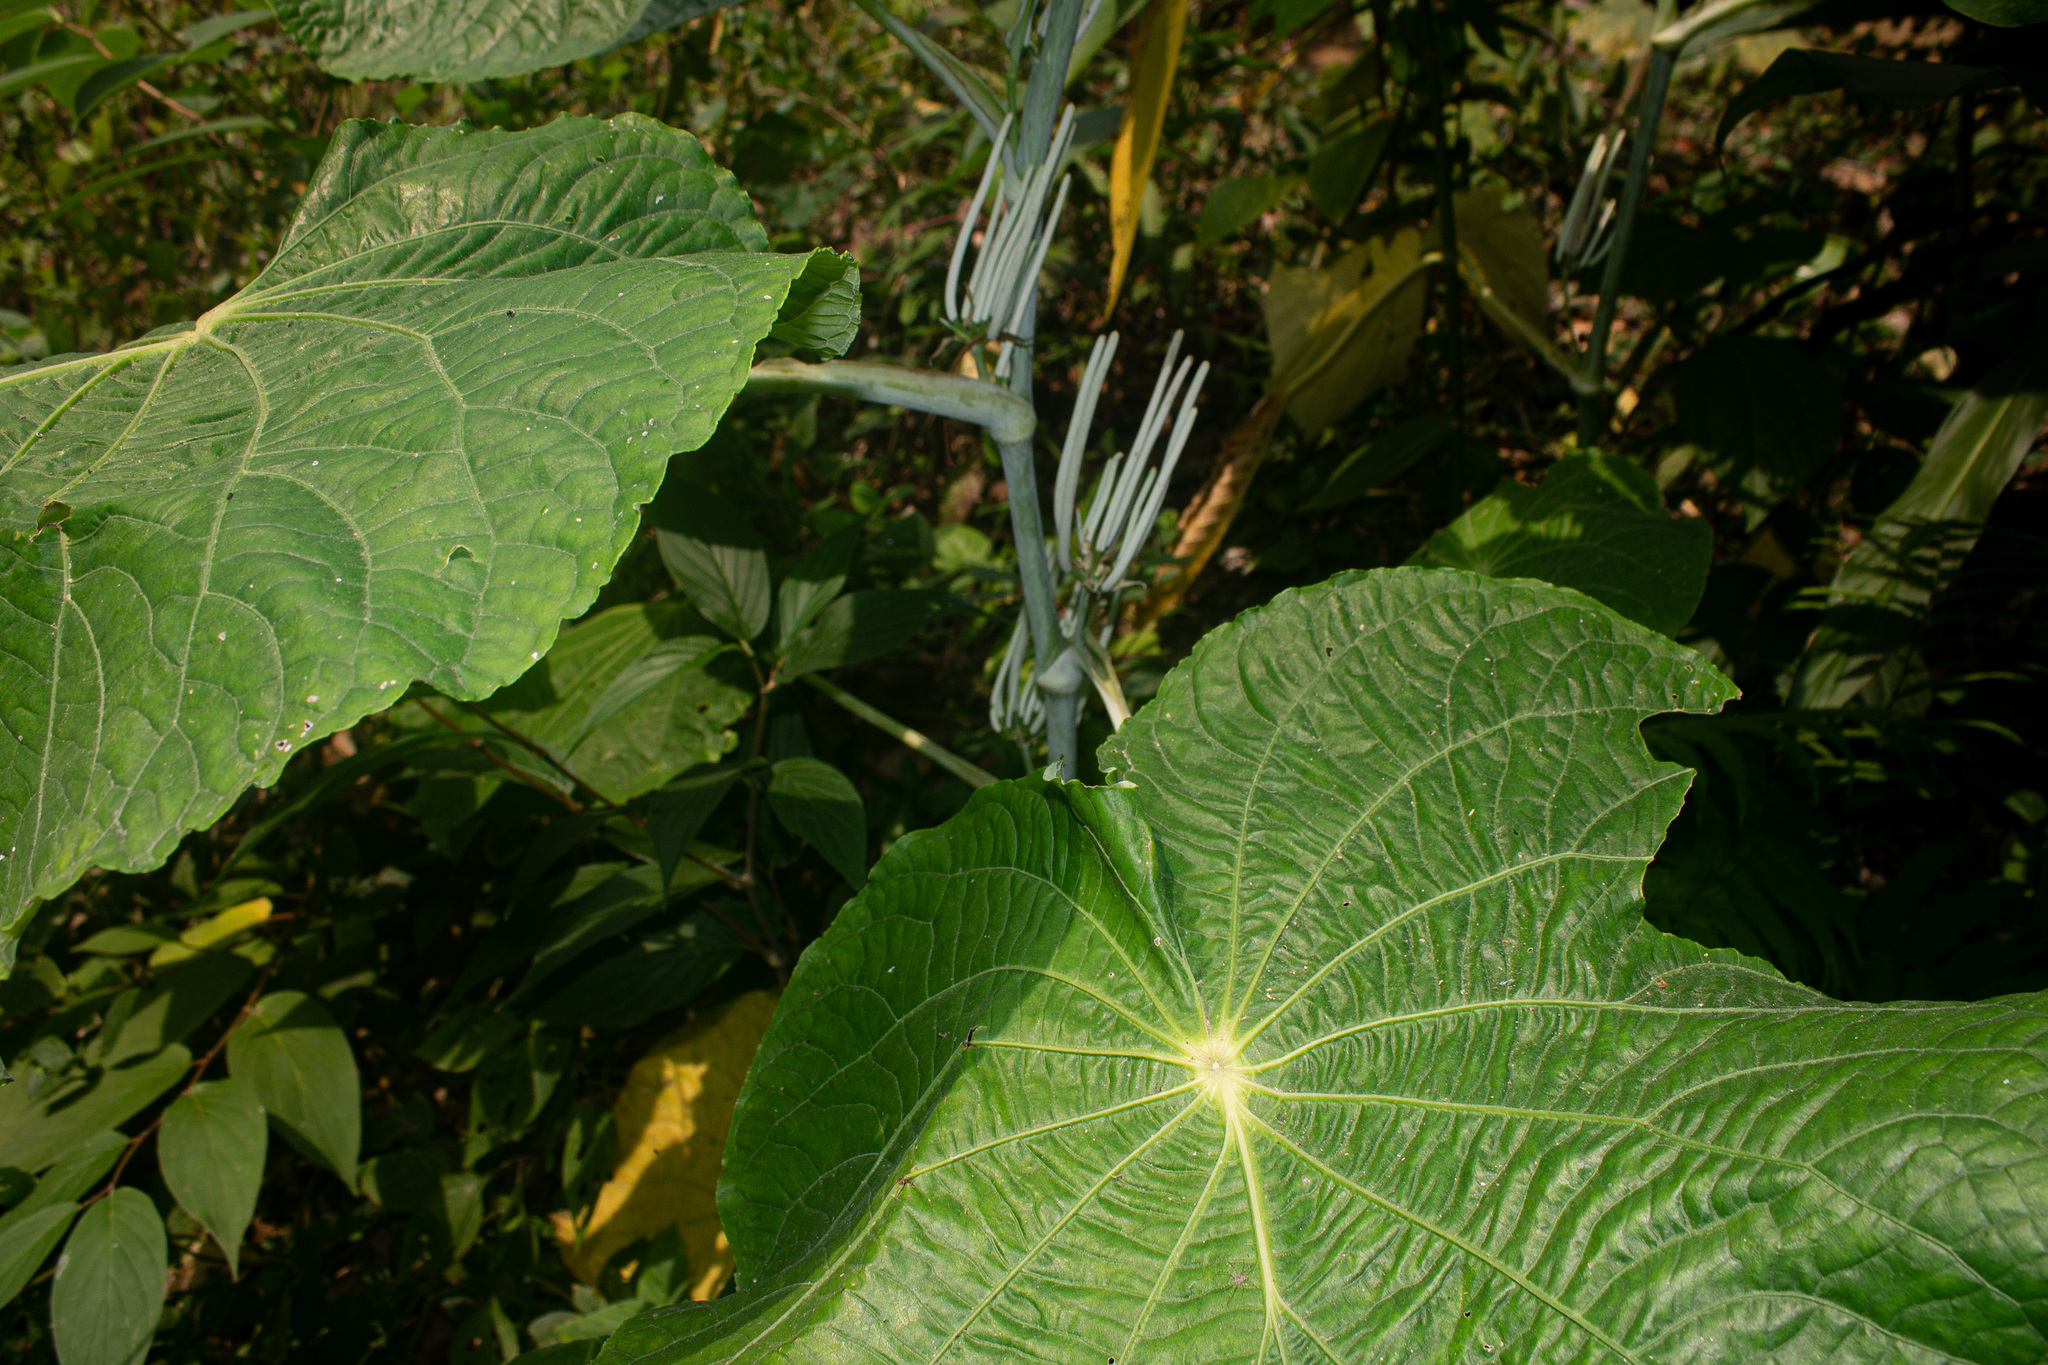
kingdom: Plantae
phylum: Tracheophyta
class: Magnoliopsida
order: Piperales
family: Piperaceae
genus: Piper
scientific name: Piper peltatum
